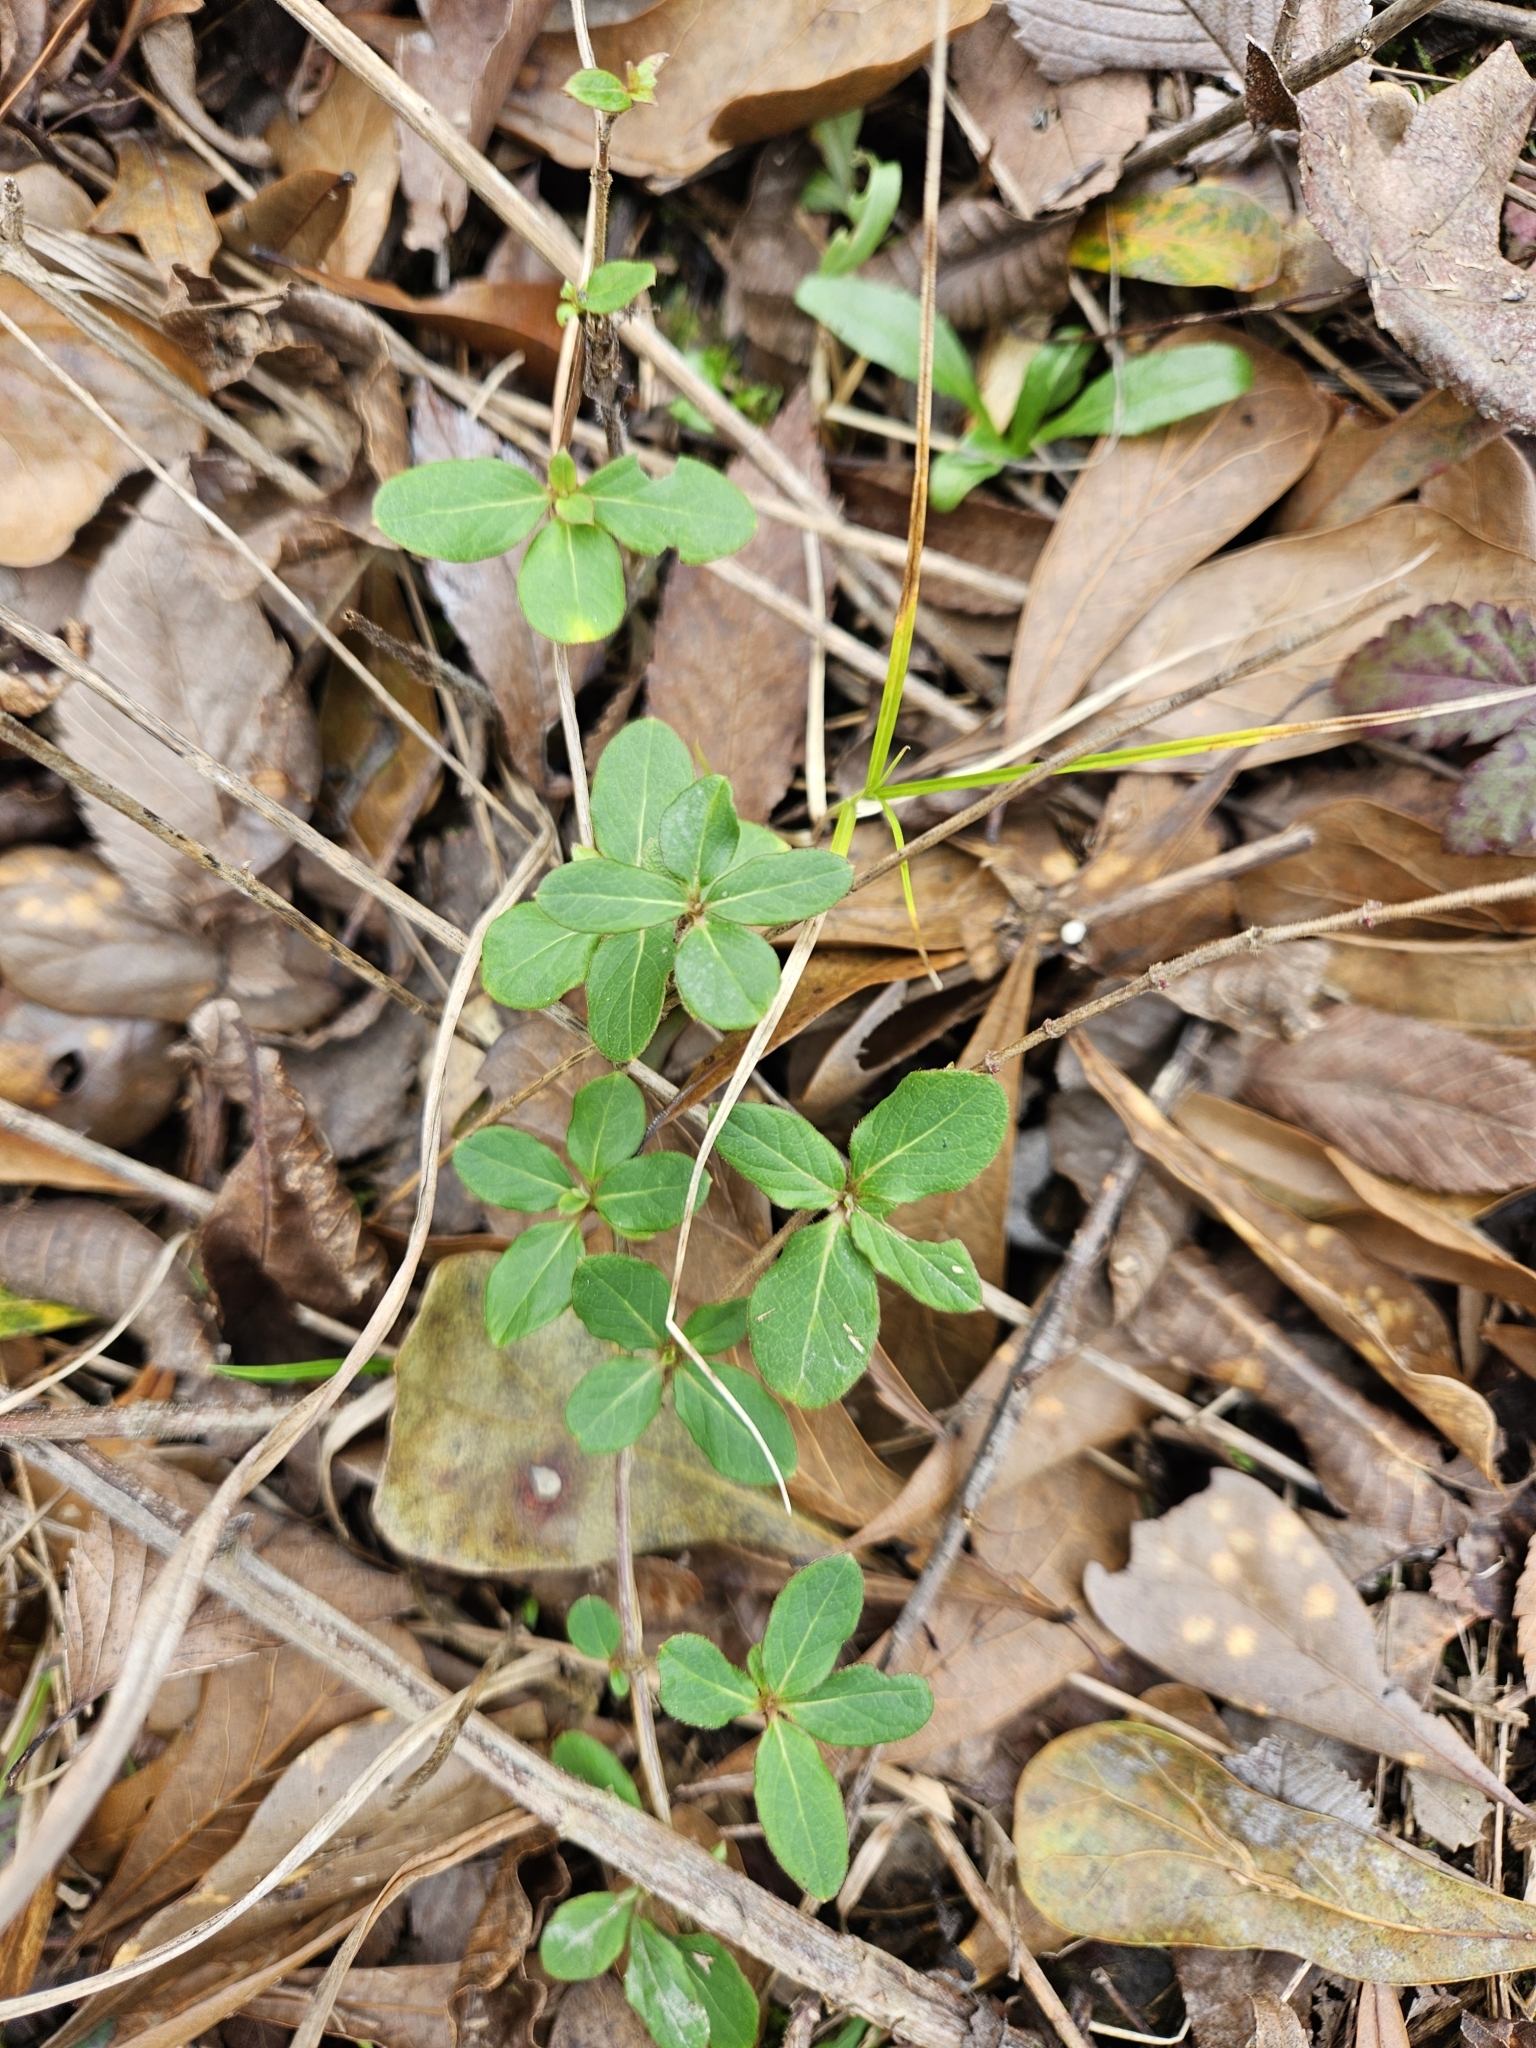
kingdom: Plantae
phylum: Tracheophyta
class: Magnoliopsida
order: Dipsacales
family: Caprifoliaceae
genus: Lonicera
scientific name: Lonicera japonica
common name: Japanese honeysuckle
